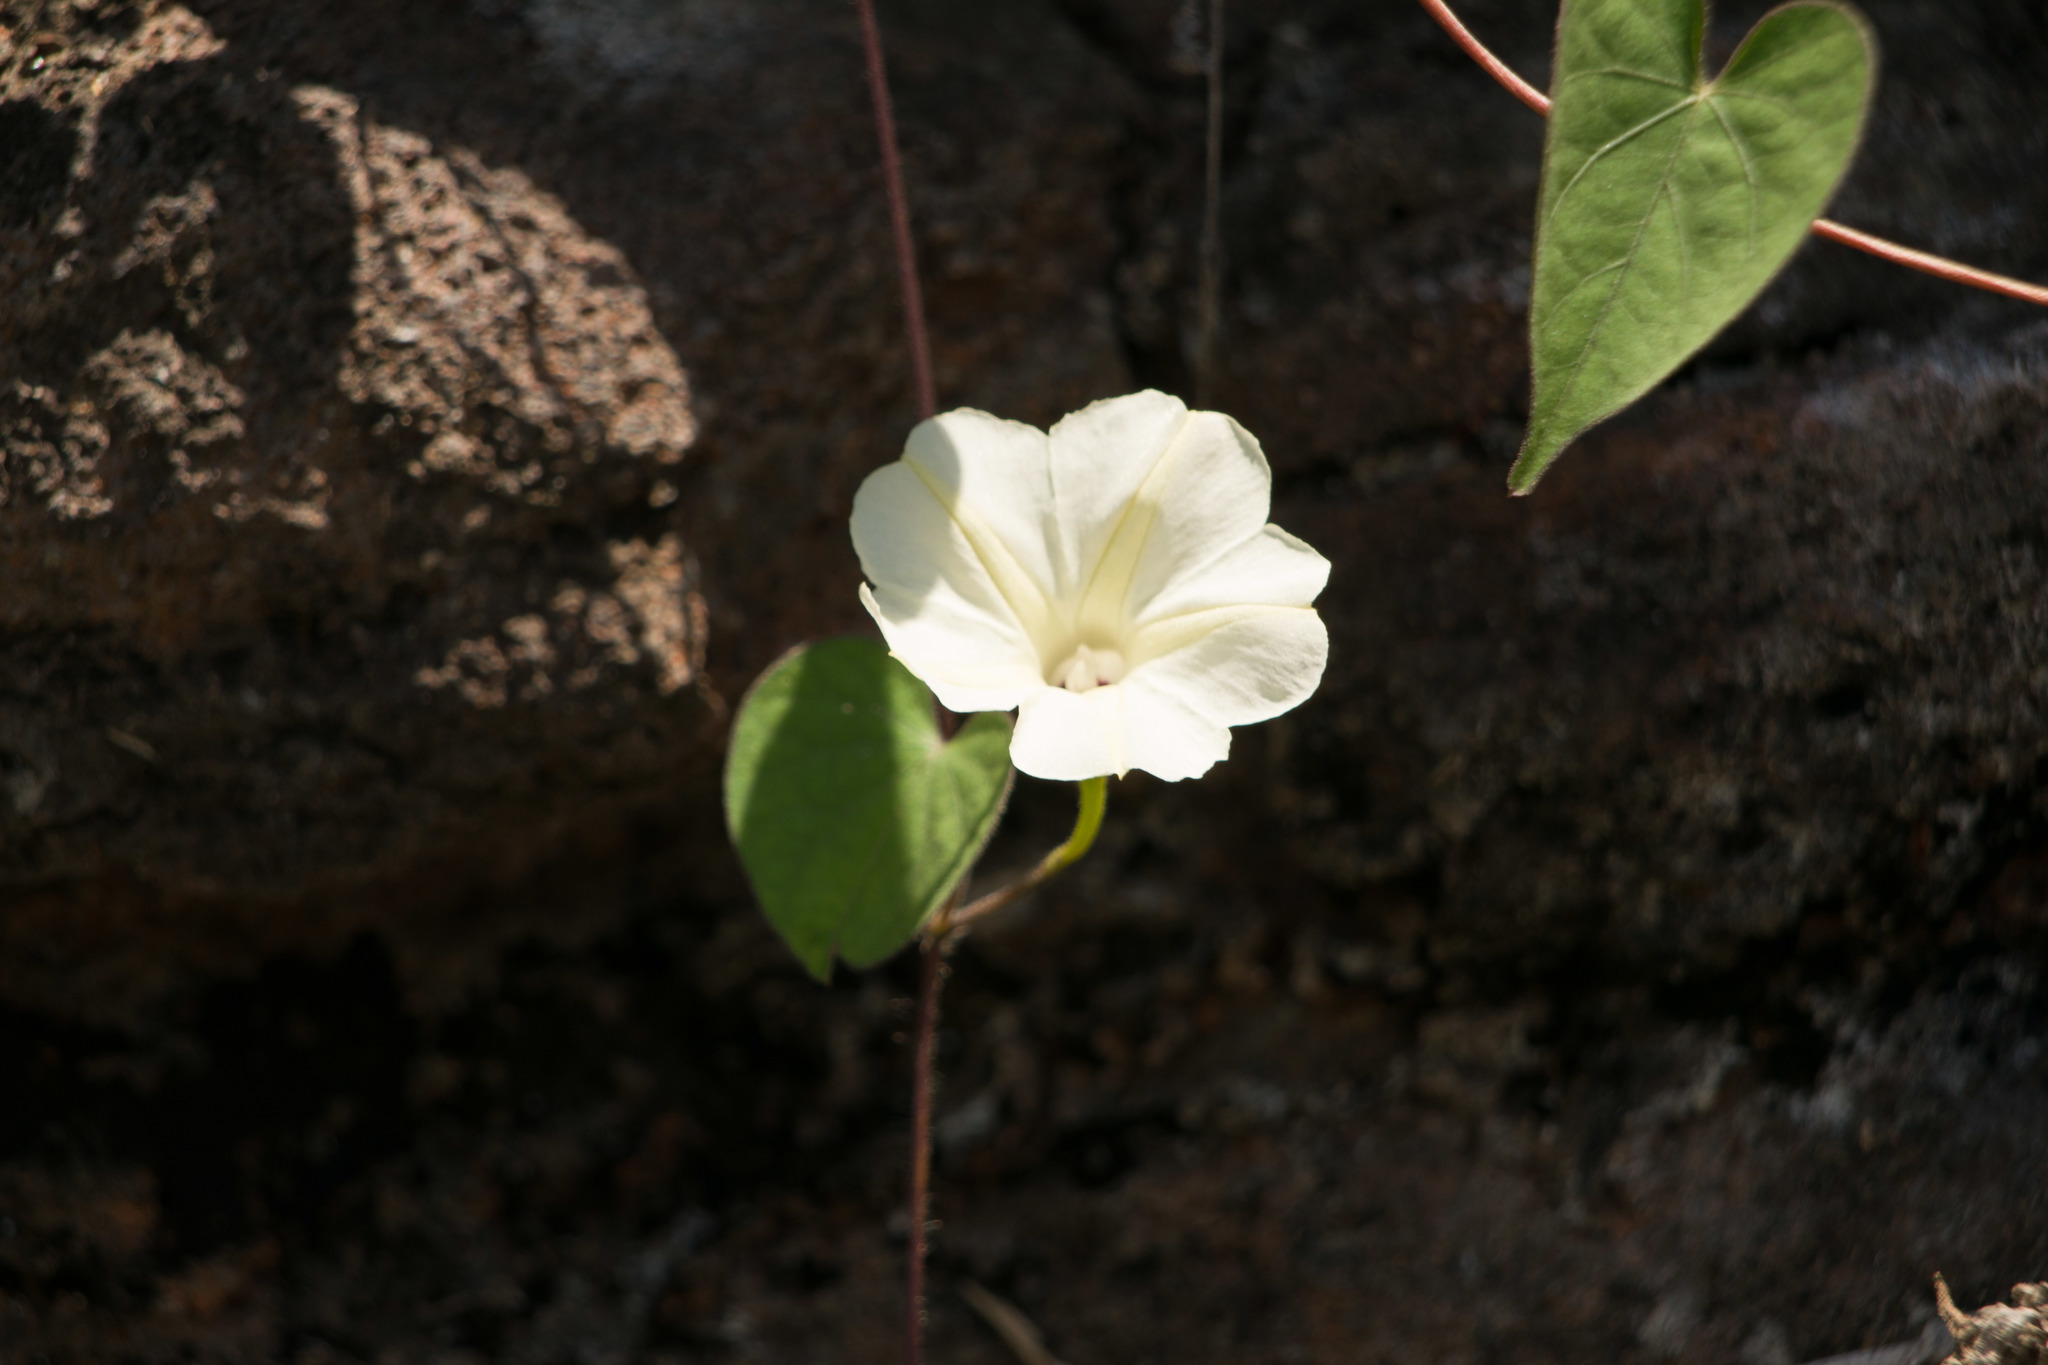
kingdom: Plantae
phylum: Tracheophyta
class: Magnoliopsida
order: Solanales
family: Convolvulaceae
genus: Ipomoea
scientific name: Ipomoea obscura
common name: Obscure morning-glory
